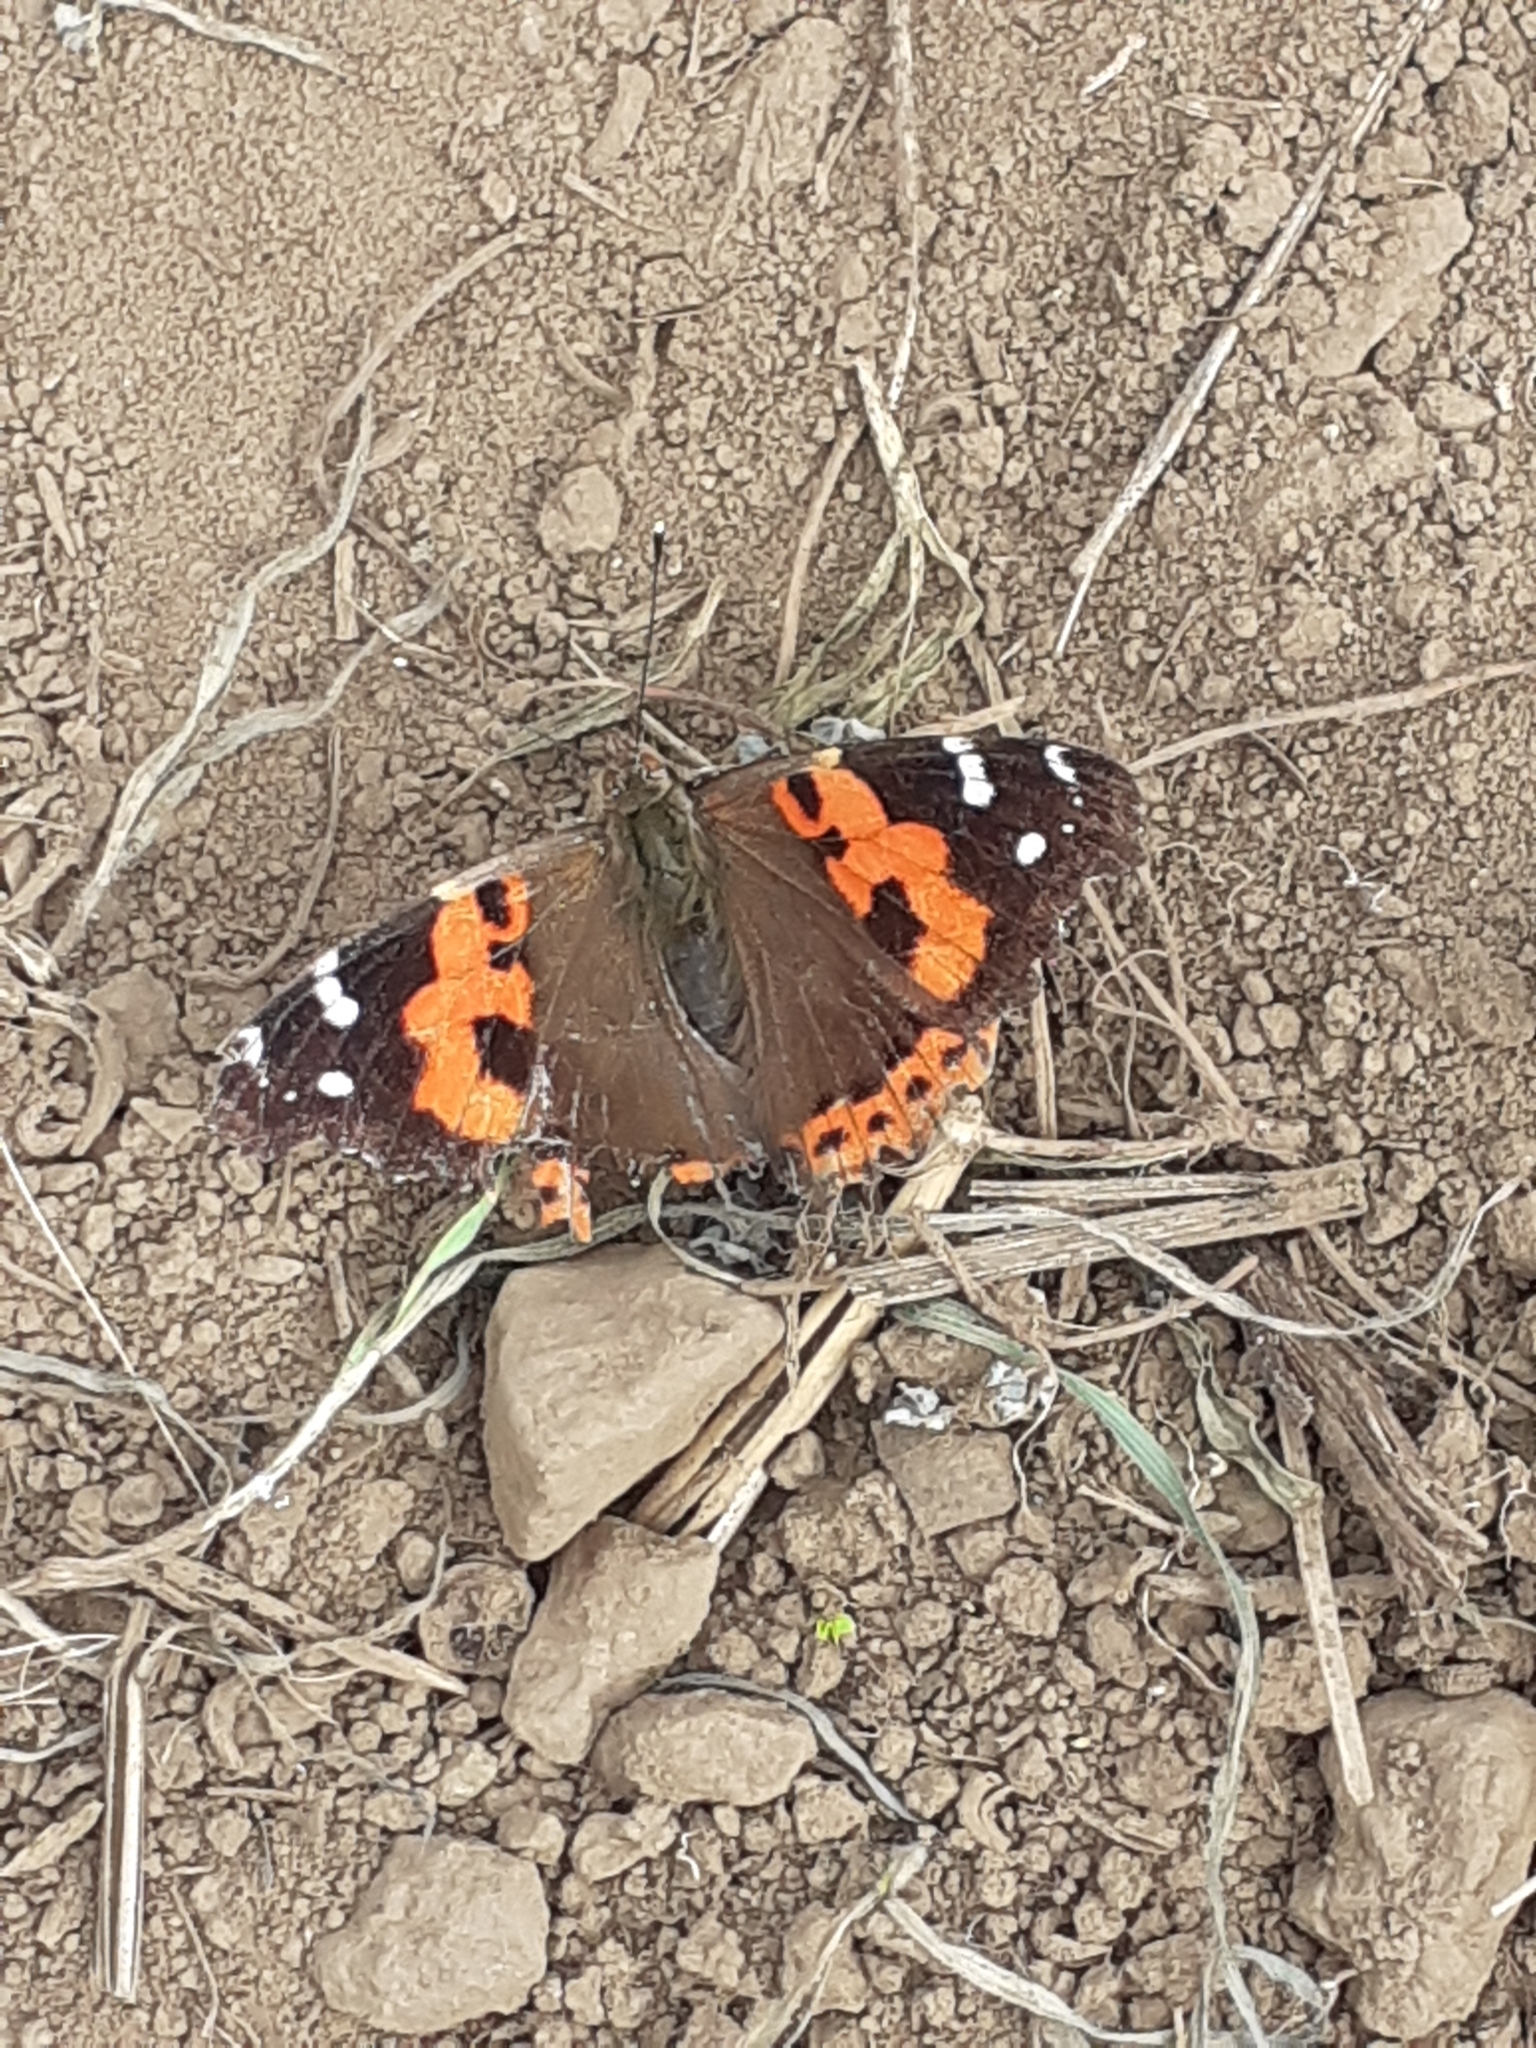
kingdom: Animalia
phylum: Arthropoda
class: Insecta
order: Lepidoptera
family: Nymphalidae
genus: Vanessa
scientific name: Vanessa vulcania
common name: Canary red admiral
